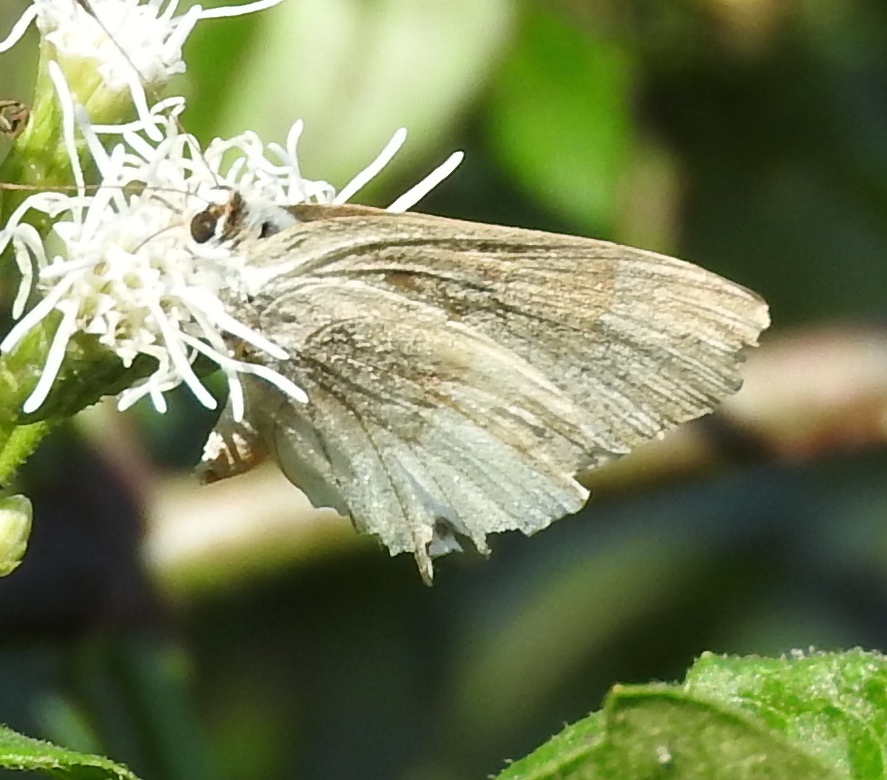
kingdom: Animalia
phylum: Arthropoda
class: Insecta
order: Lepidoptera
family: Lycaenidae
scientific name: Lycaenidae
